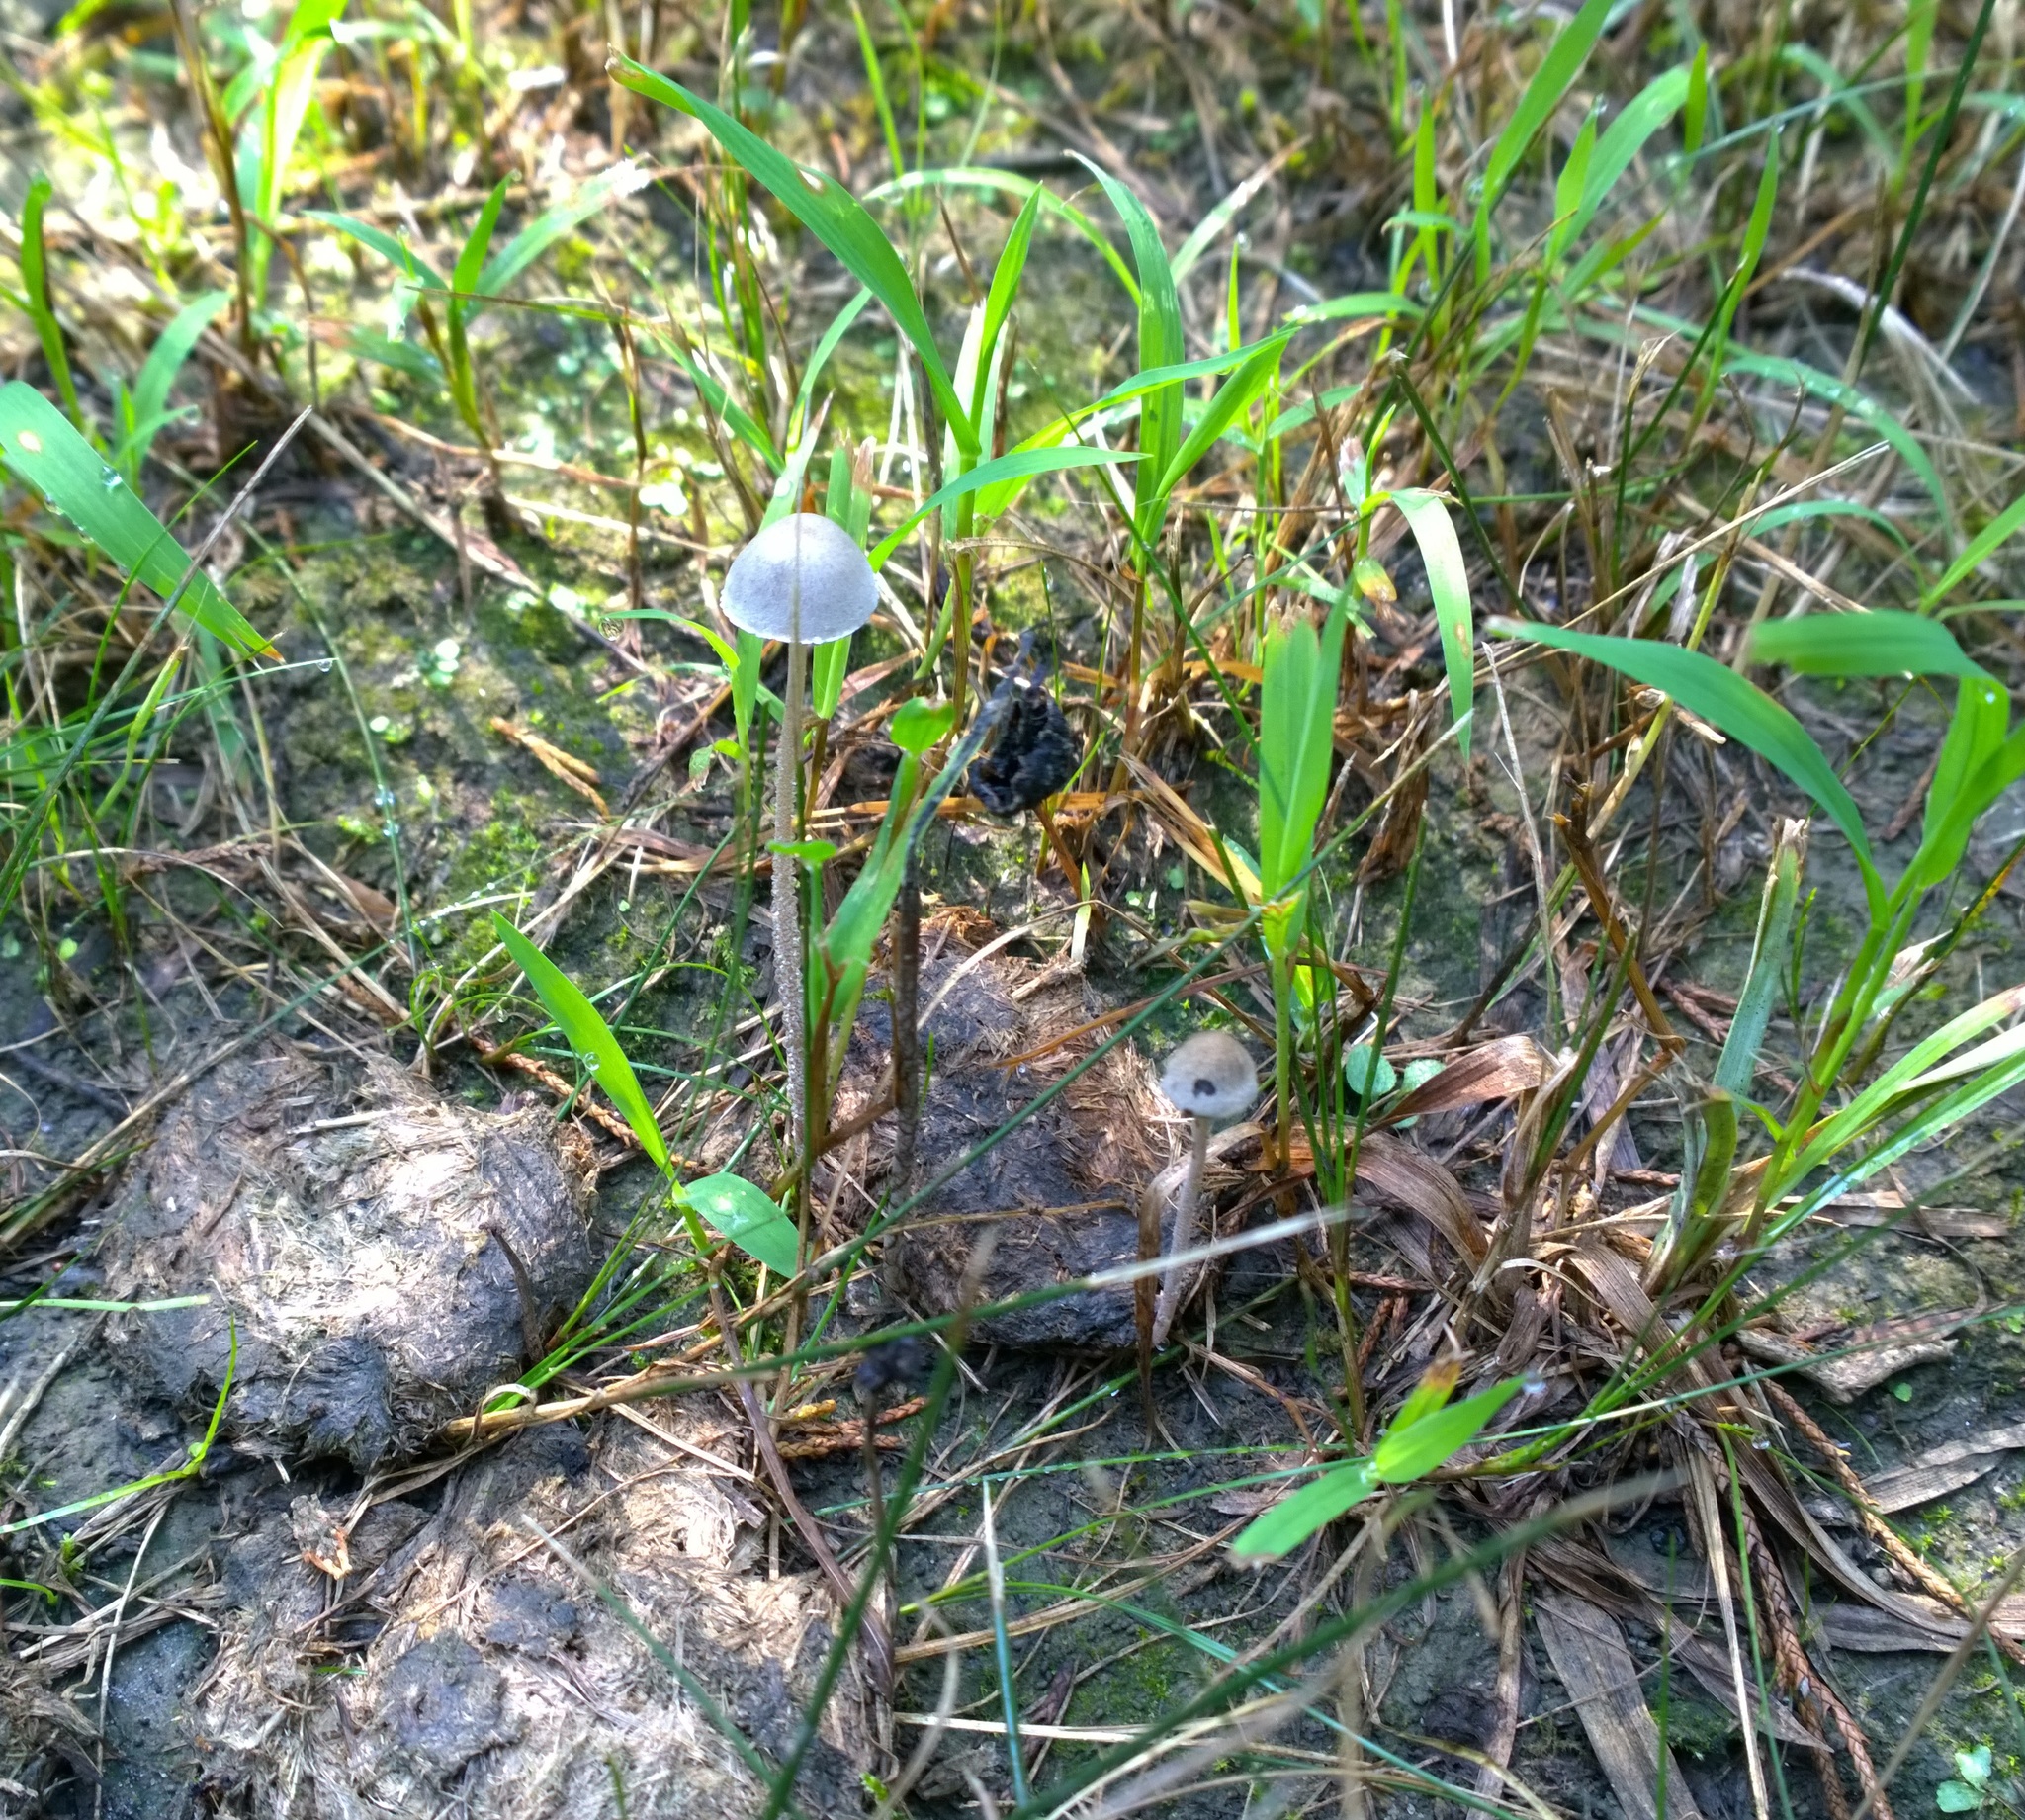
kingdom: Fungi
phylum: Basidiomycota
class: Agaricomycetes
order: Agaricales
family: Bolbitiaceae
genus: Panaeolus
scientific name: Panaeolus papilionaceus
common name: Petticoat mottlegill
